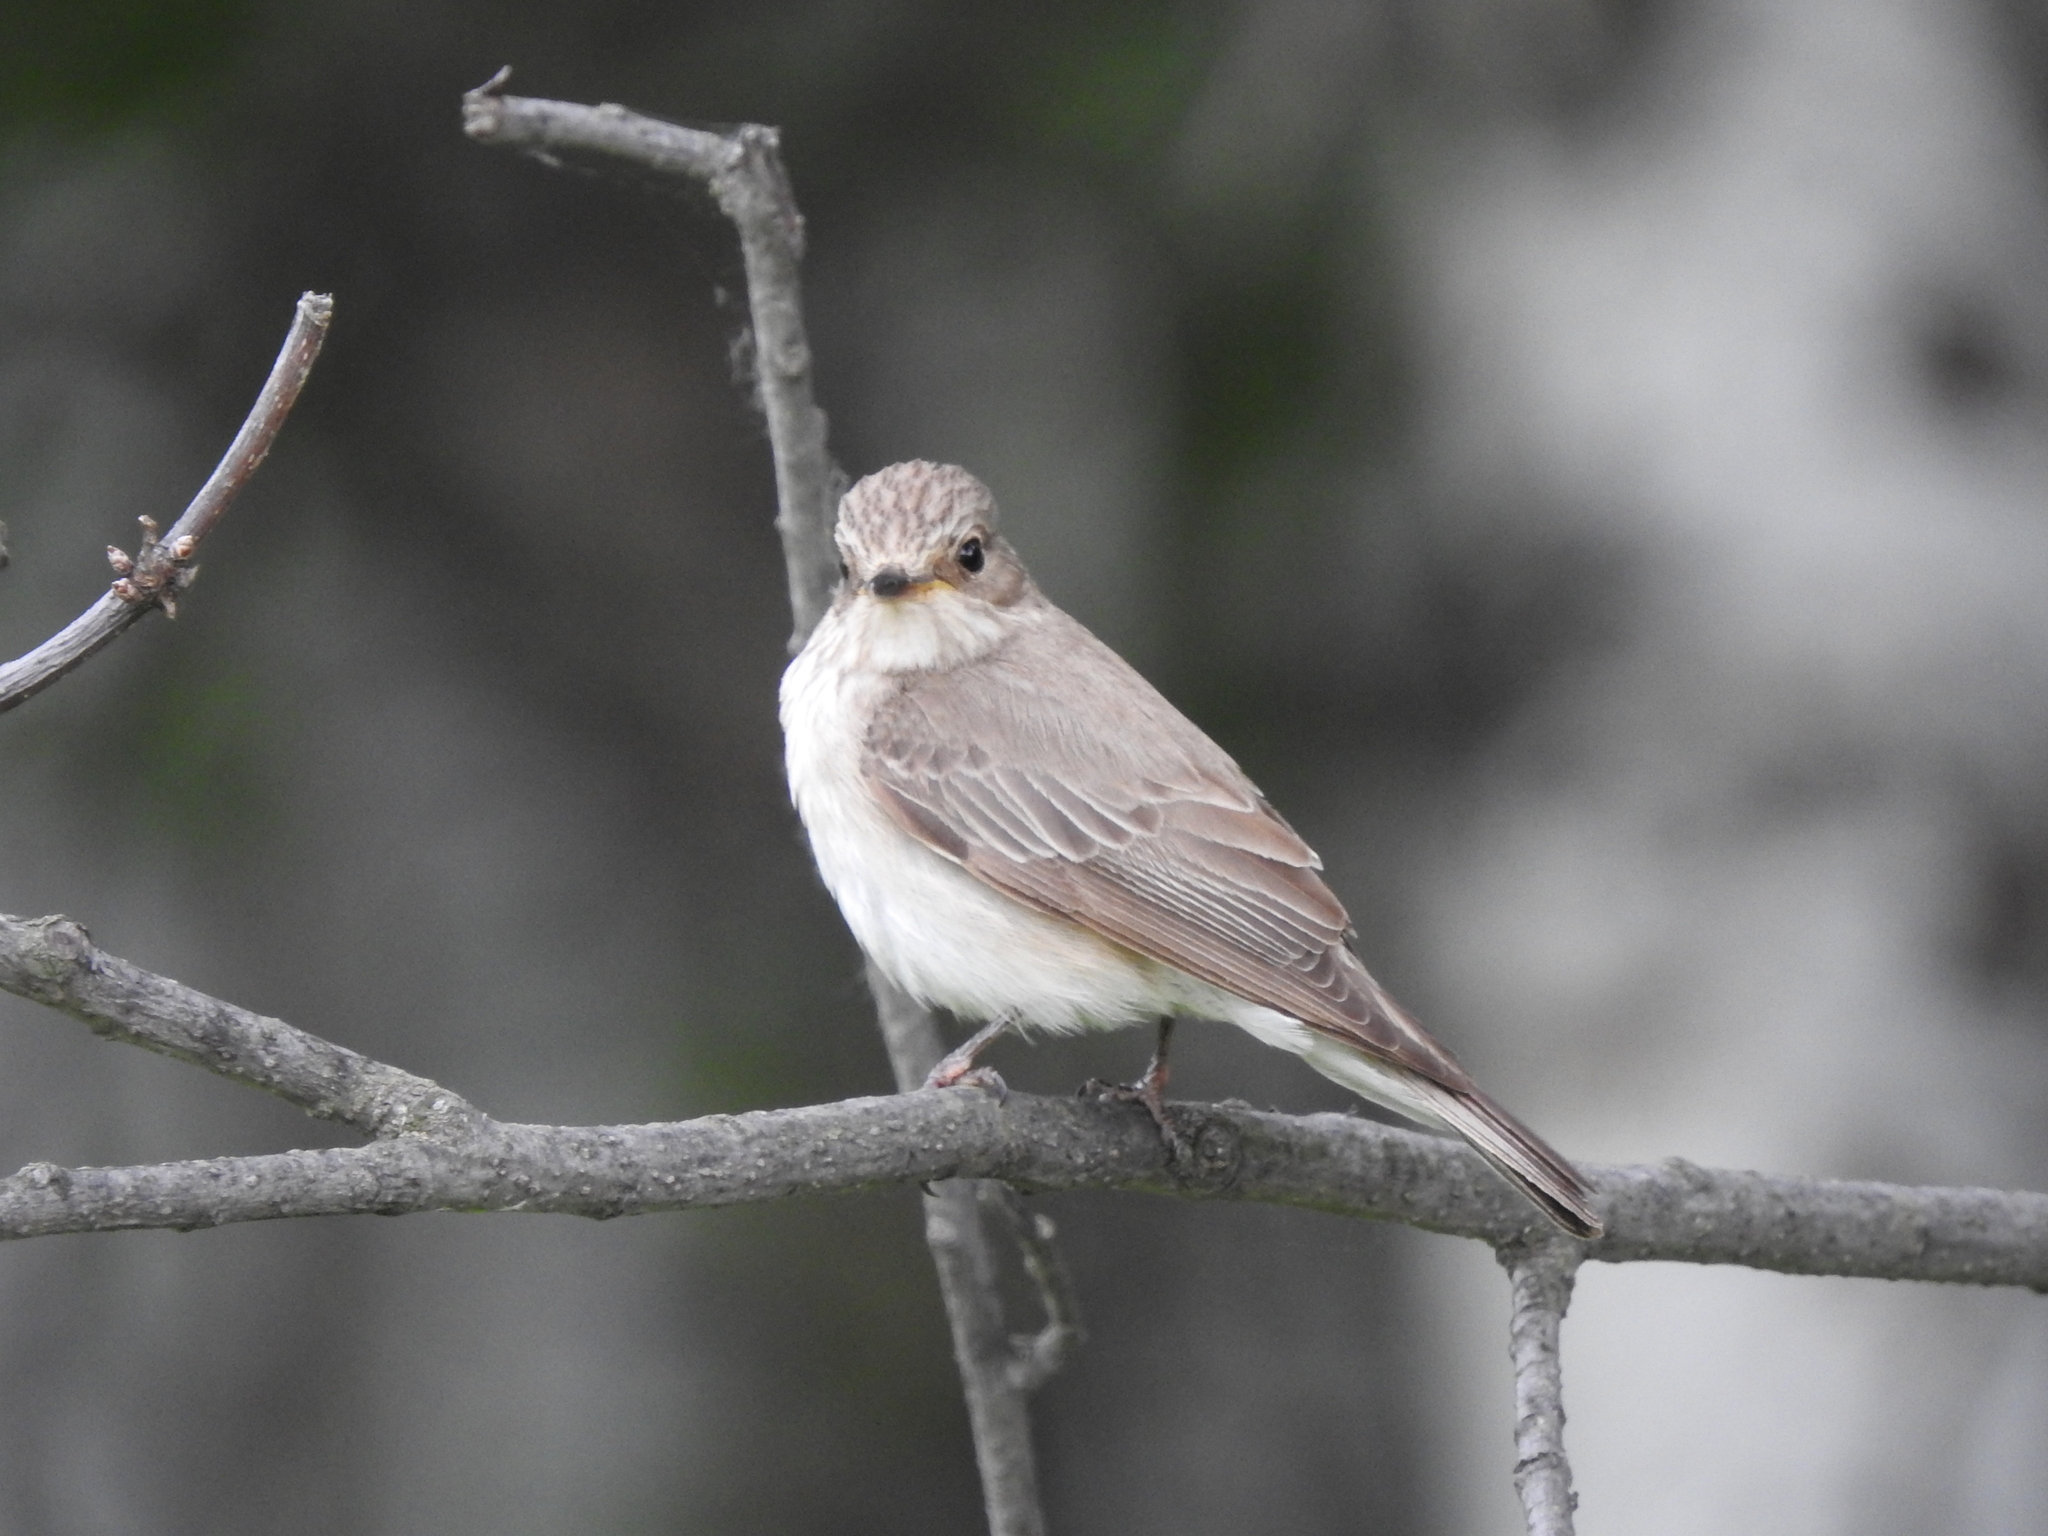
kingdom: Animalia
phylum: Chordata
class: Aves
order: Passeriformes
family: Muscicapidae
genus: Muscicapa
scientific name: Muscicapa striata
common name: Spotted flycatcher
